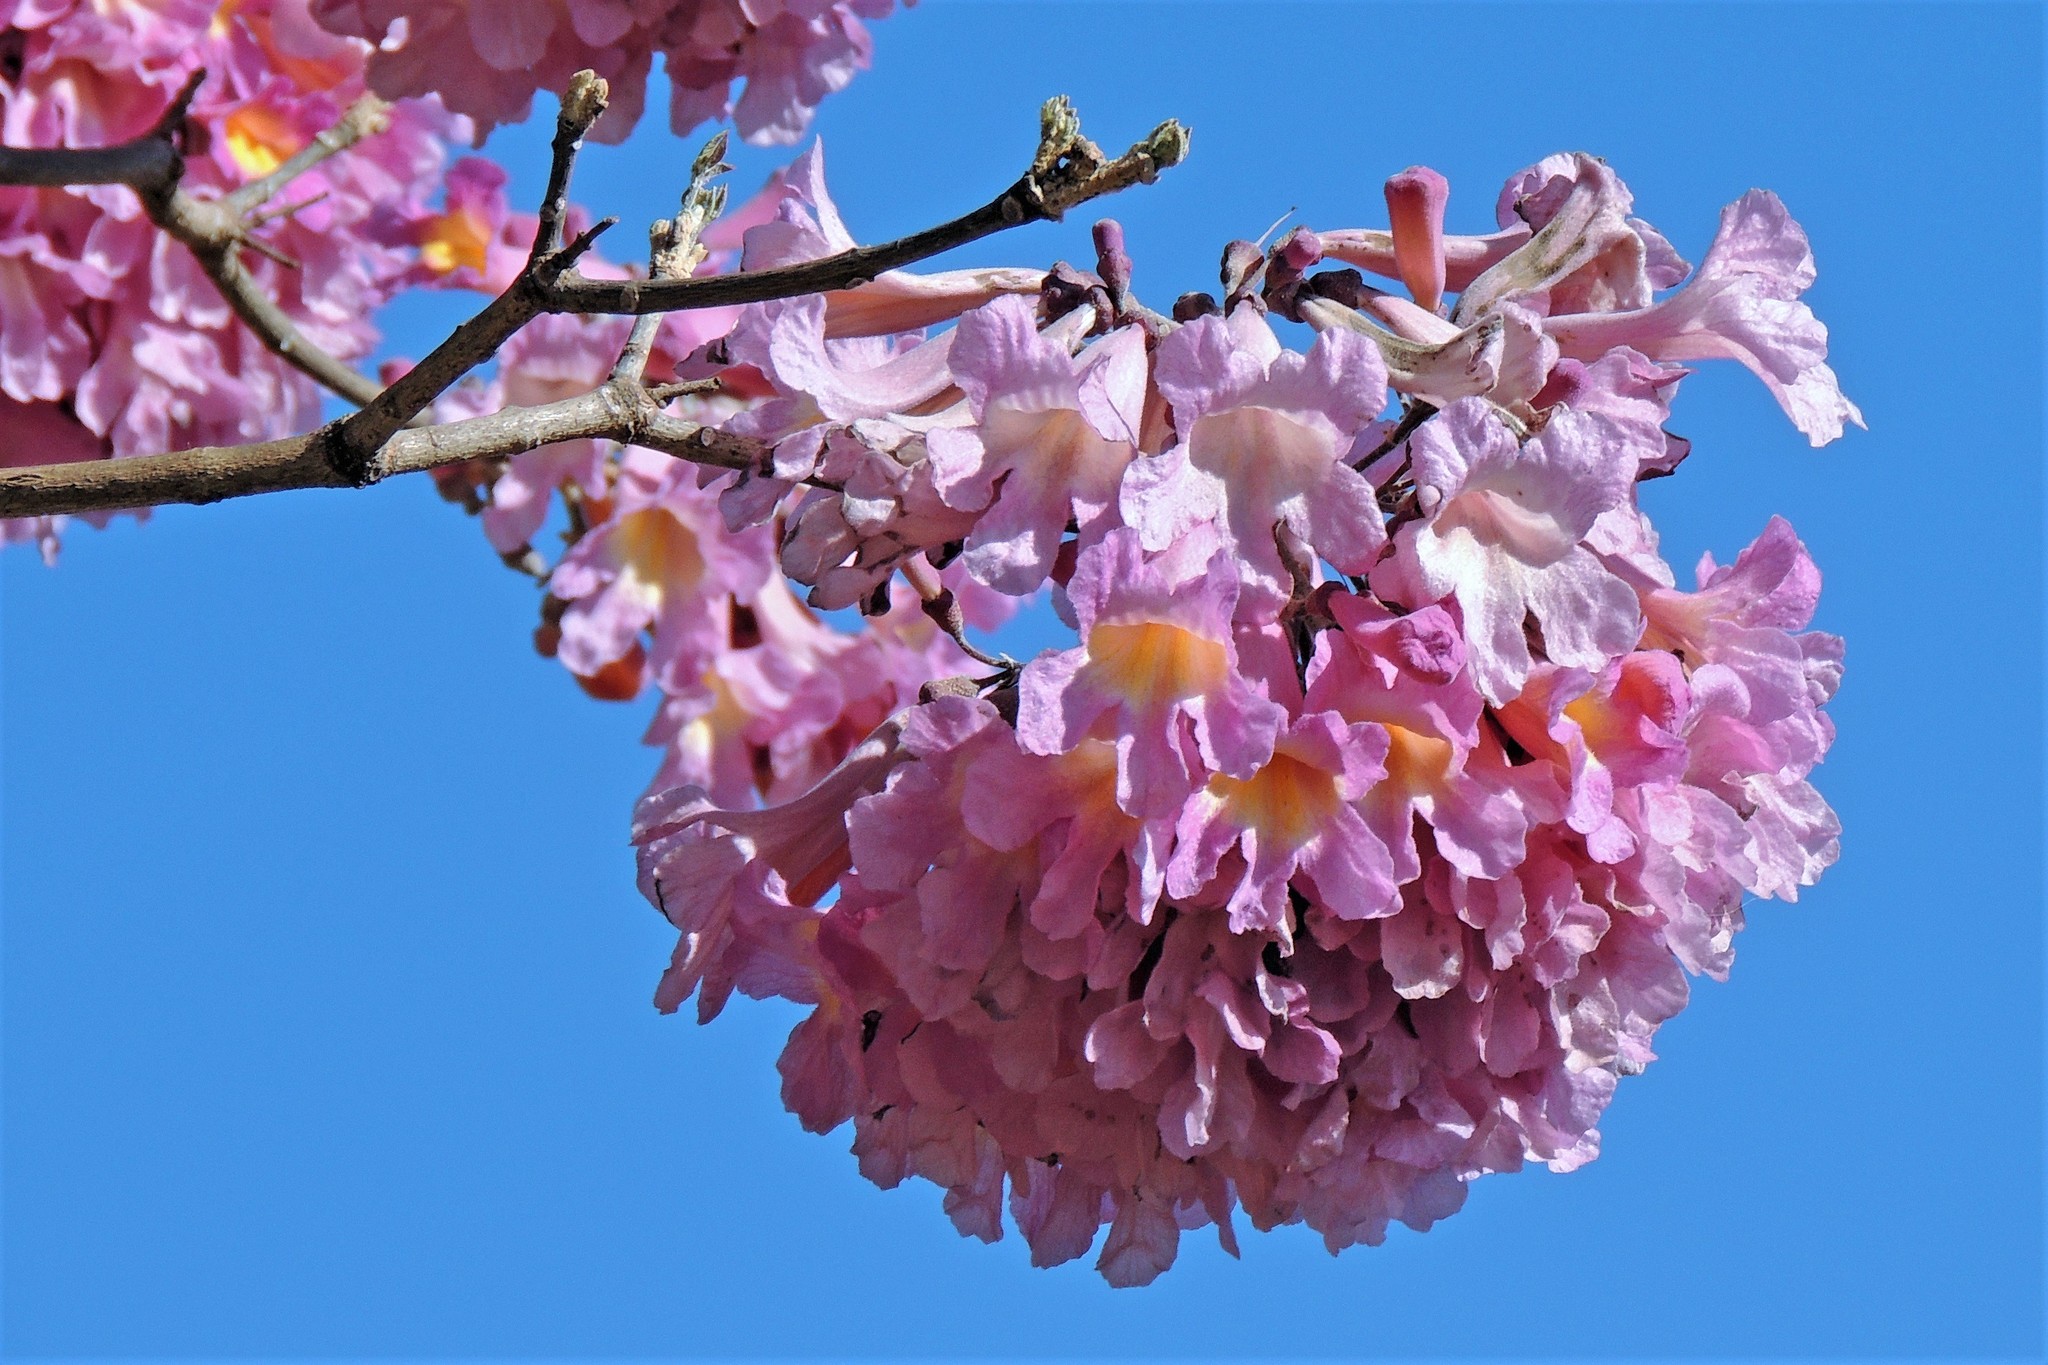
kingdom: Plantae
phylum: Tracheophyta
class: Magnoliopsida
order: Lamiales
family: Bignoniaceae
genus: Handroanthus
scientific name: Handroanthus impetiginosum
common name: Pink trumpet tree
